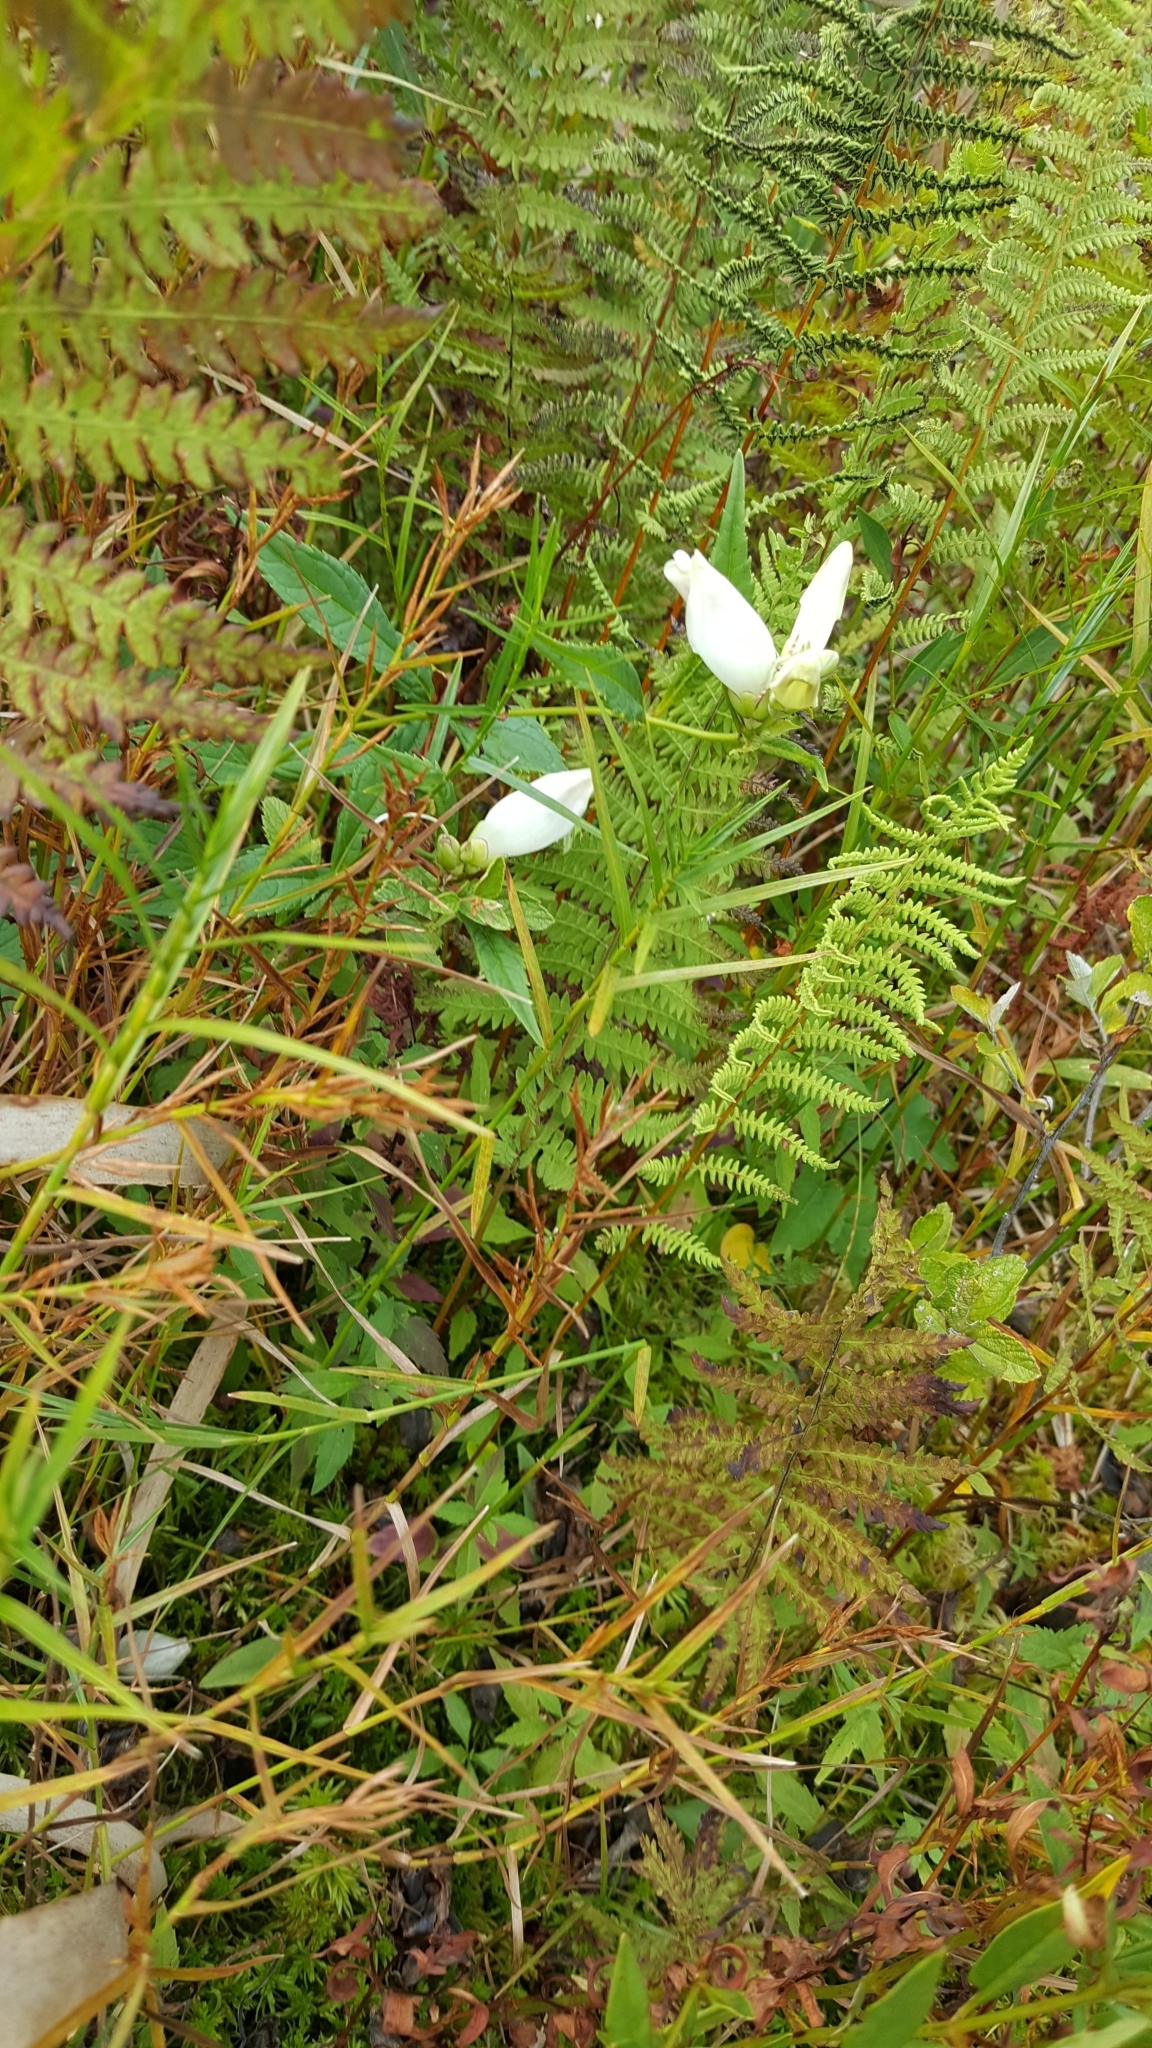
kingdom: Plantae
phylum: Tracheophyta
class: Magnoliopsida
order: Lamiales
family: Plantaginaceae
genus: Chelone
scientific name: Chelone glabra
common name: Snakehead
